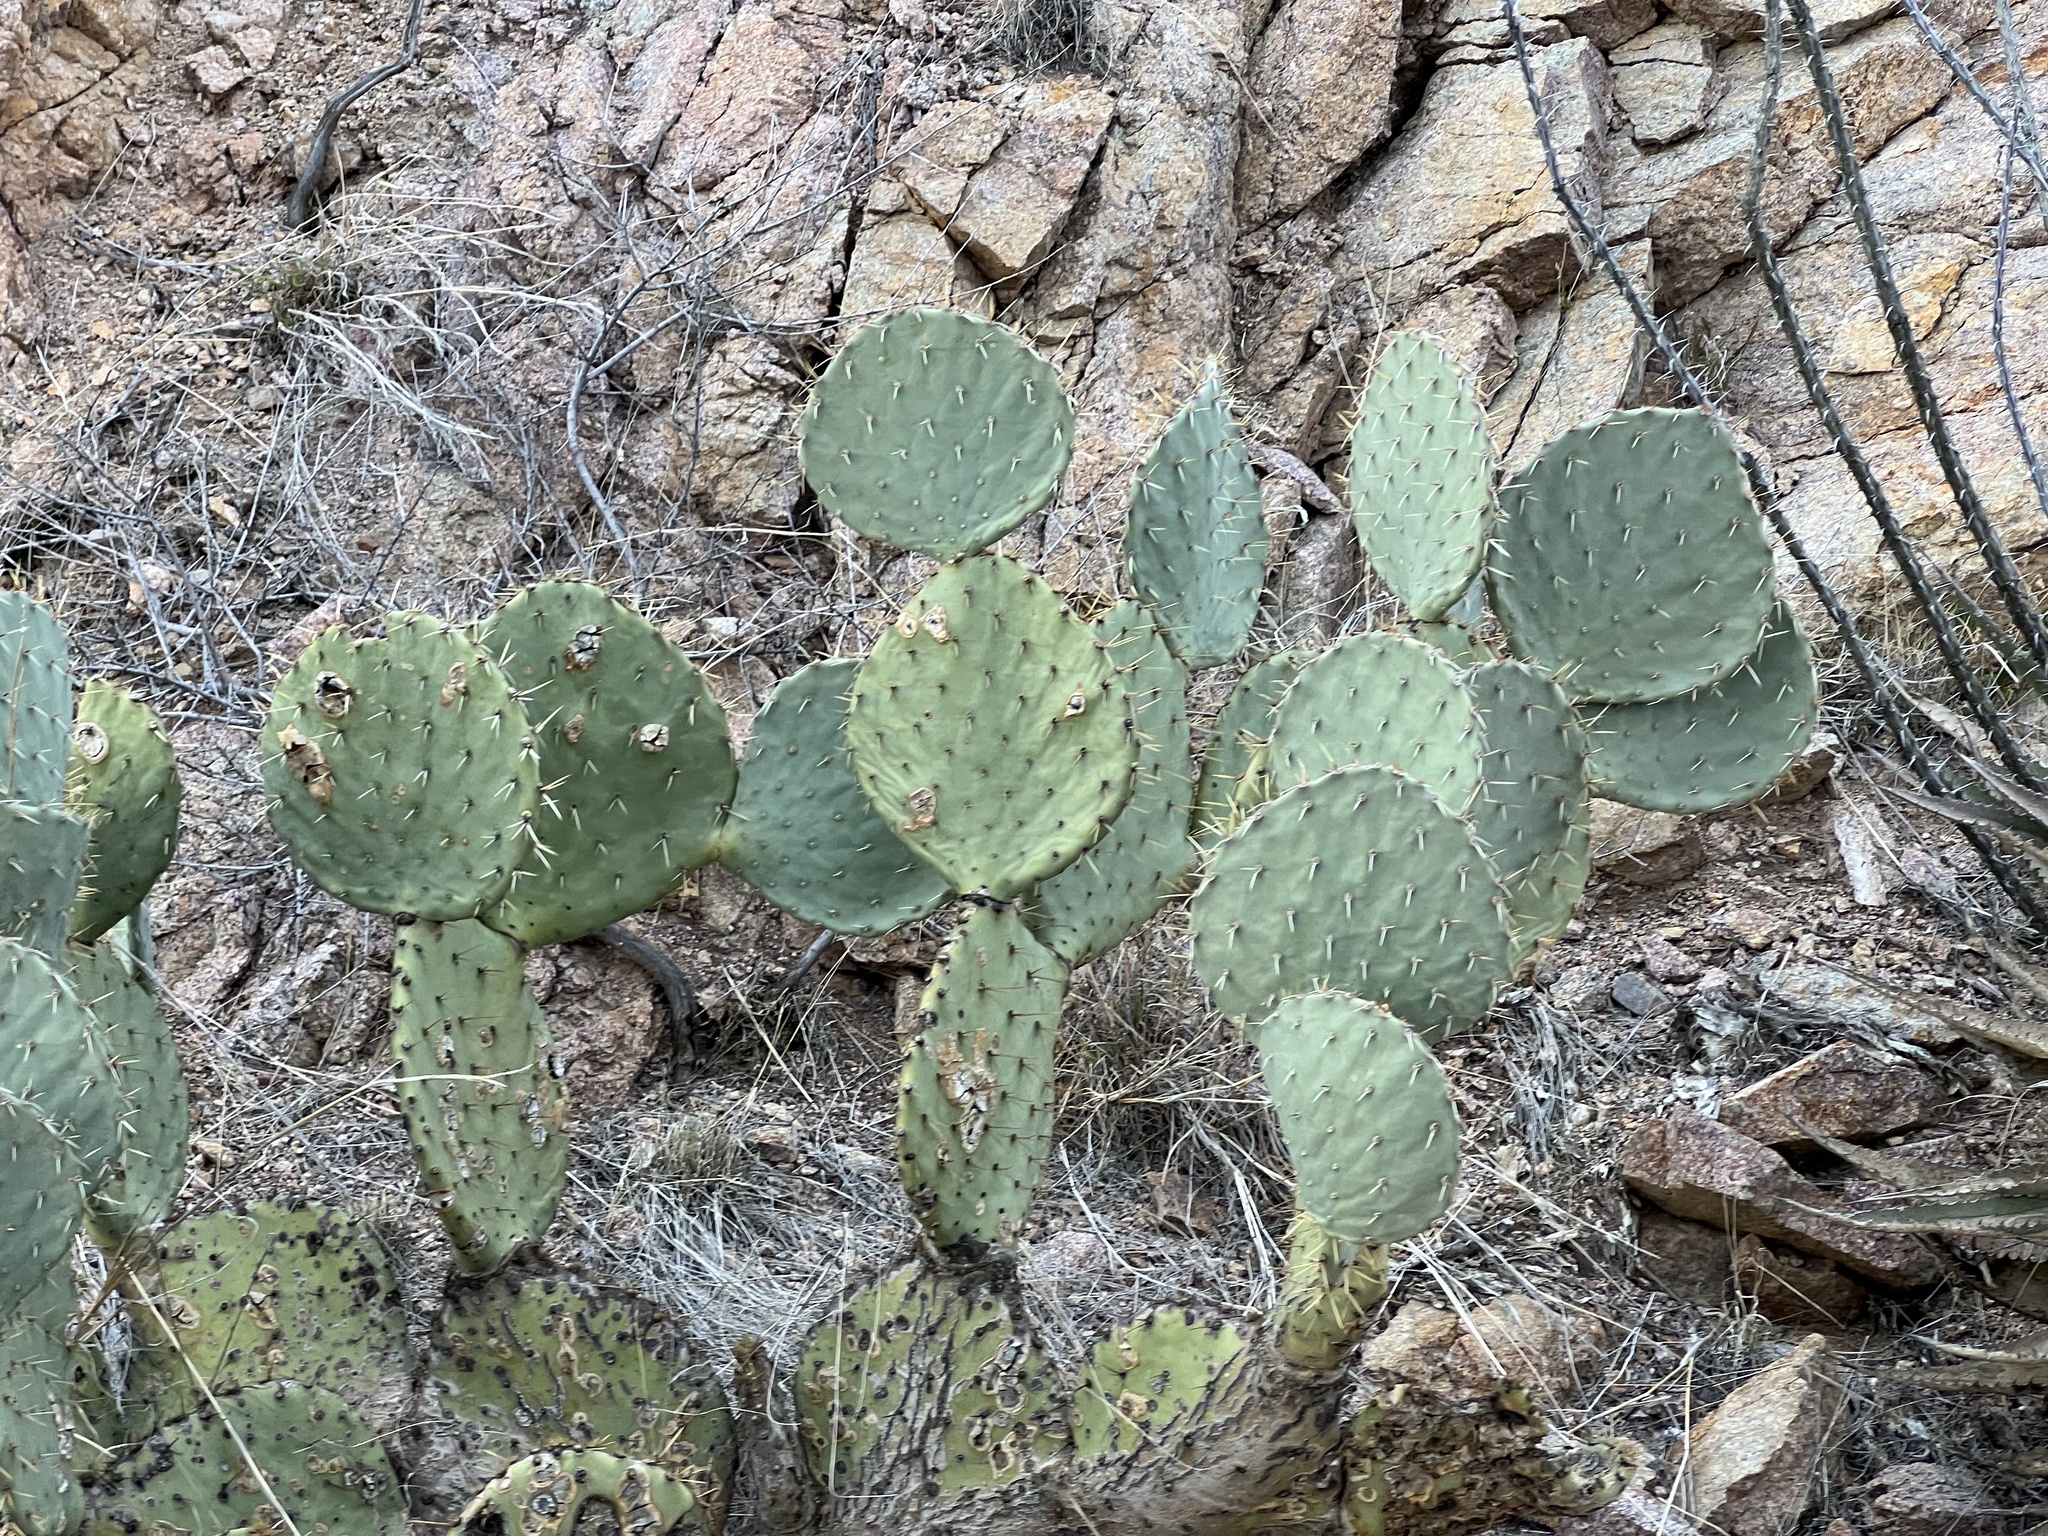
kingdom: Plantae
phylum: Tracheophyta
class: Magnoliopsida
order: Caryophyllales
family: Cactaceae
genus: Opuntia
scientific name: Opuntia engelmannii
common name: Cactus-apple
